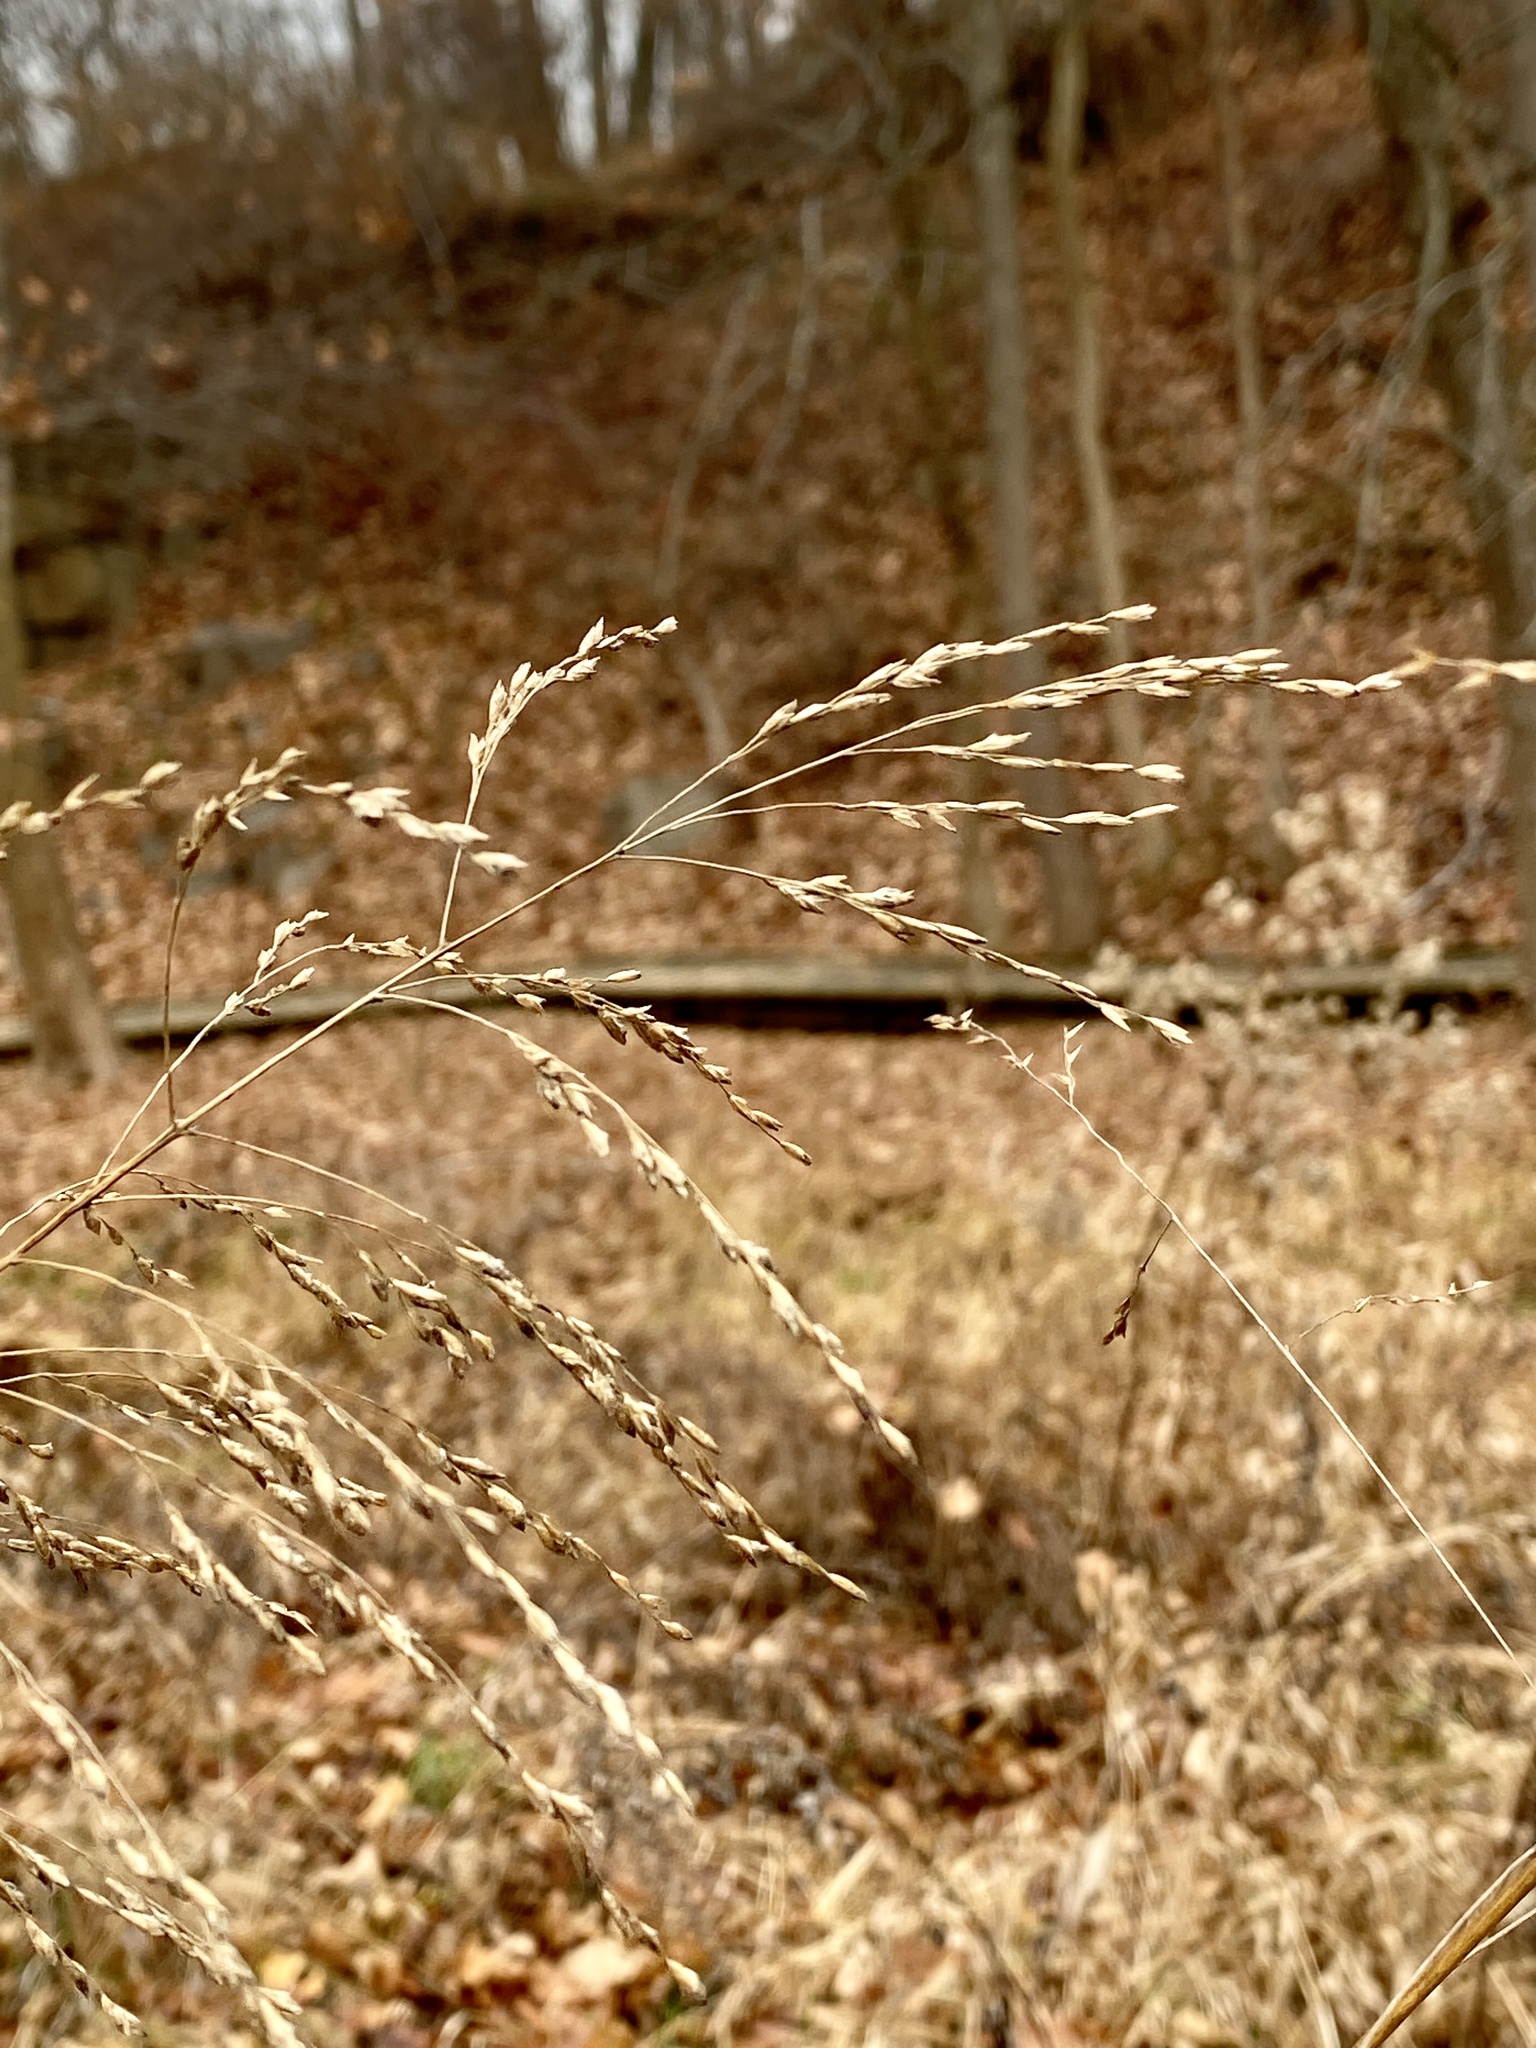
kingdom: Plantae
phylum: Tracheophyta
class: Liliopsida
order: Poales
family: Poaceae
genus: Tridens
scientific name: Tridens flavus
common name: Purpletop
